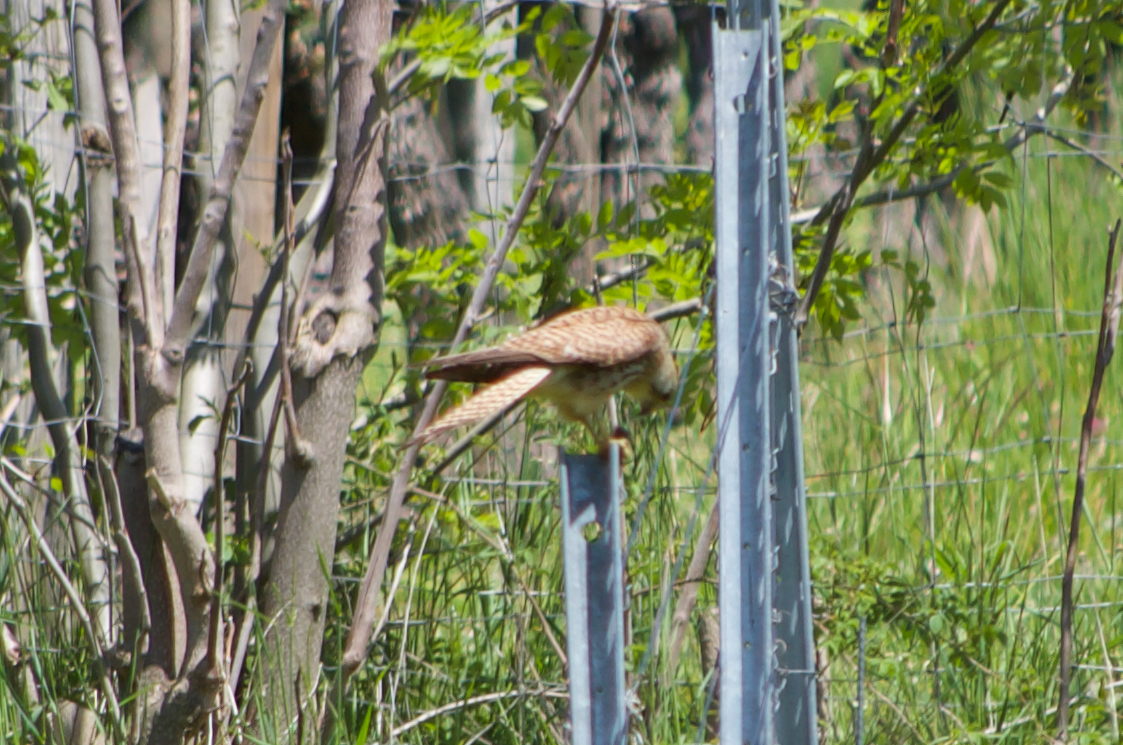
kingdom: Animalia
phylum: Chordata
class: Aves
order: Falconiformes
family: Falconidae
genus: Falco
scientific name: Falco tinnunculus
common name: Common kestrel
